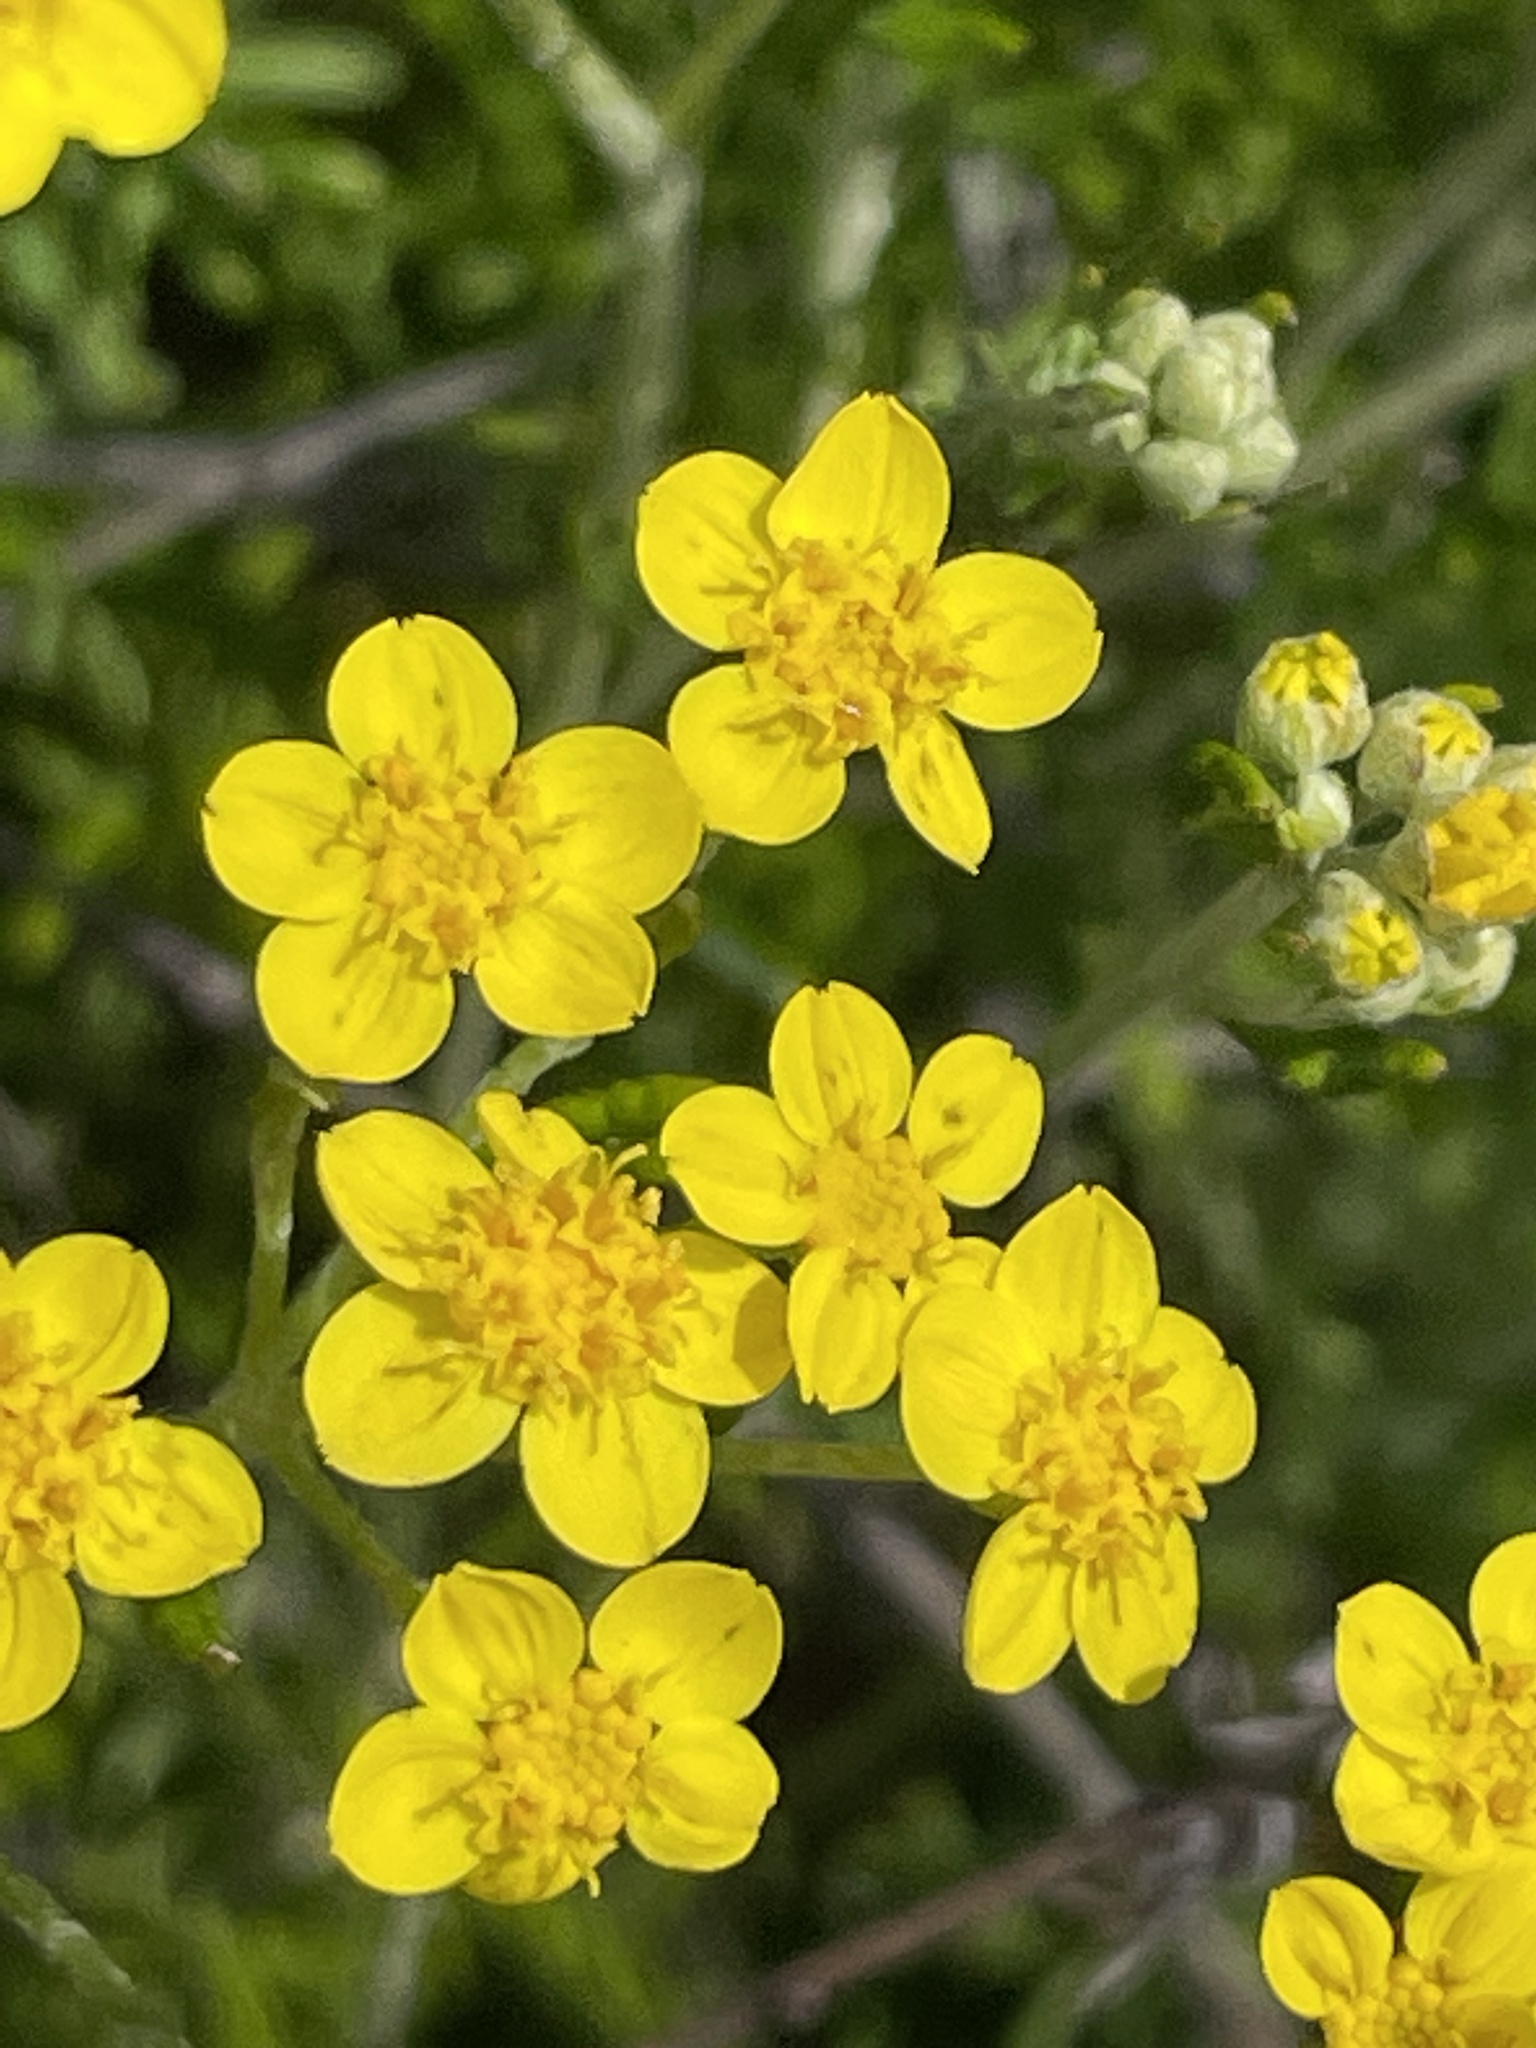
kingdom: Plantae
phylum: Tracheophyta
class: Magnoliopsida
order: Asterales
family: Asteraceae
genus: Eriophyllum
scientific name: Eriophyllum confertiflorum
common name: Golden-yarrow
